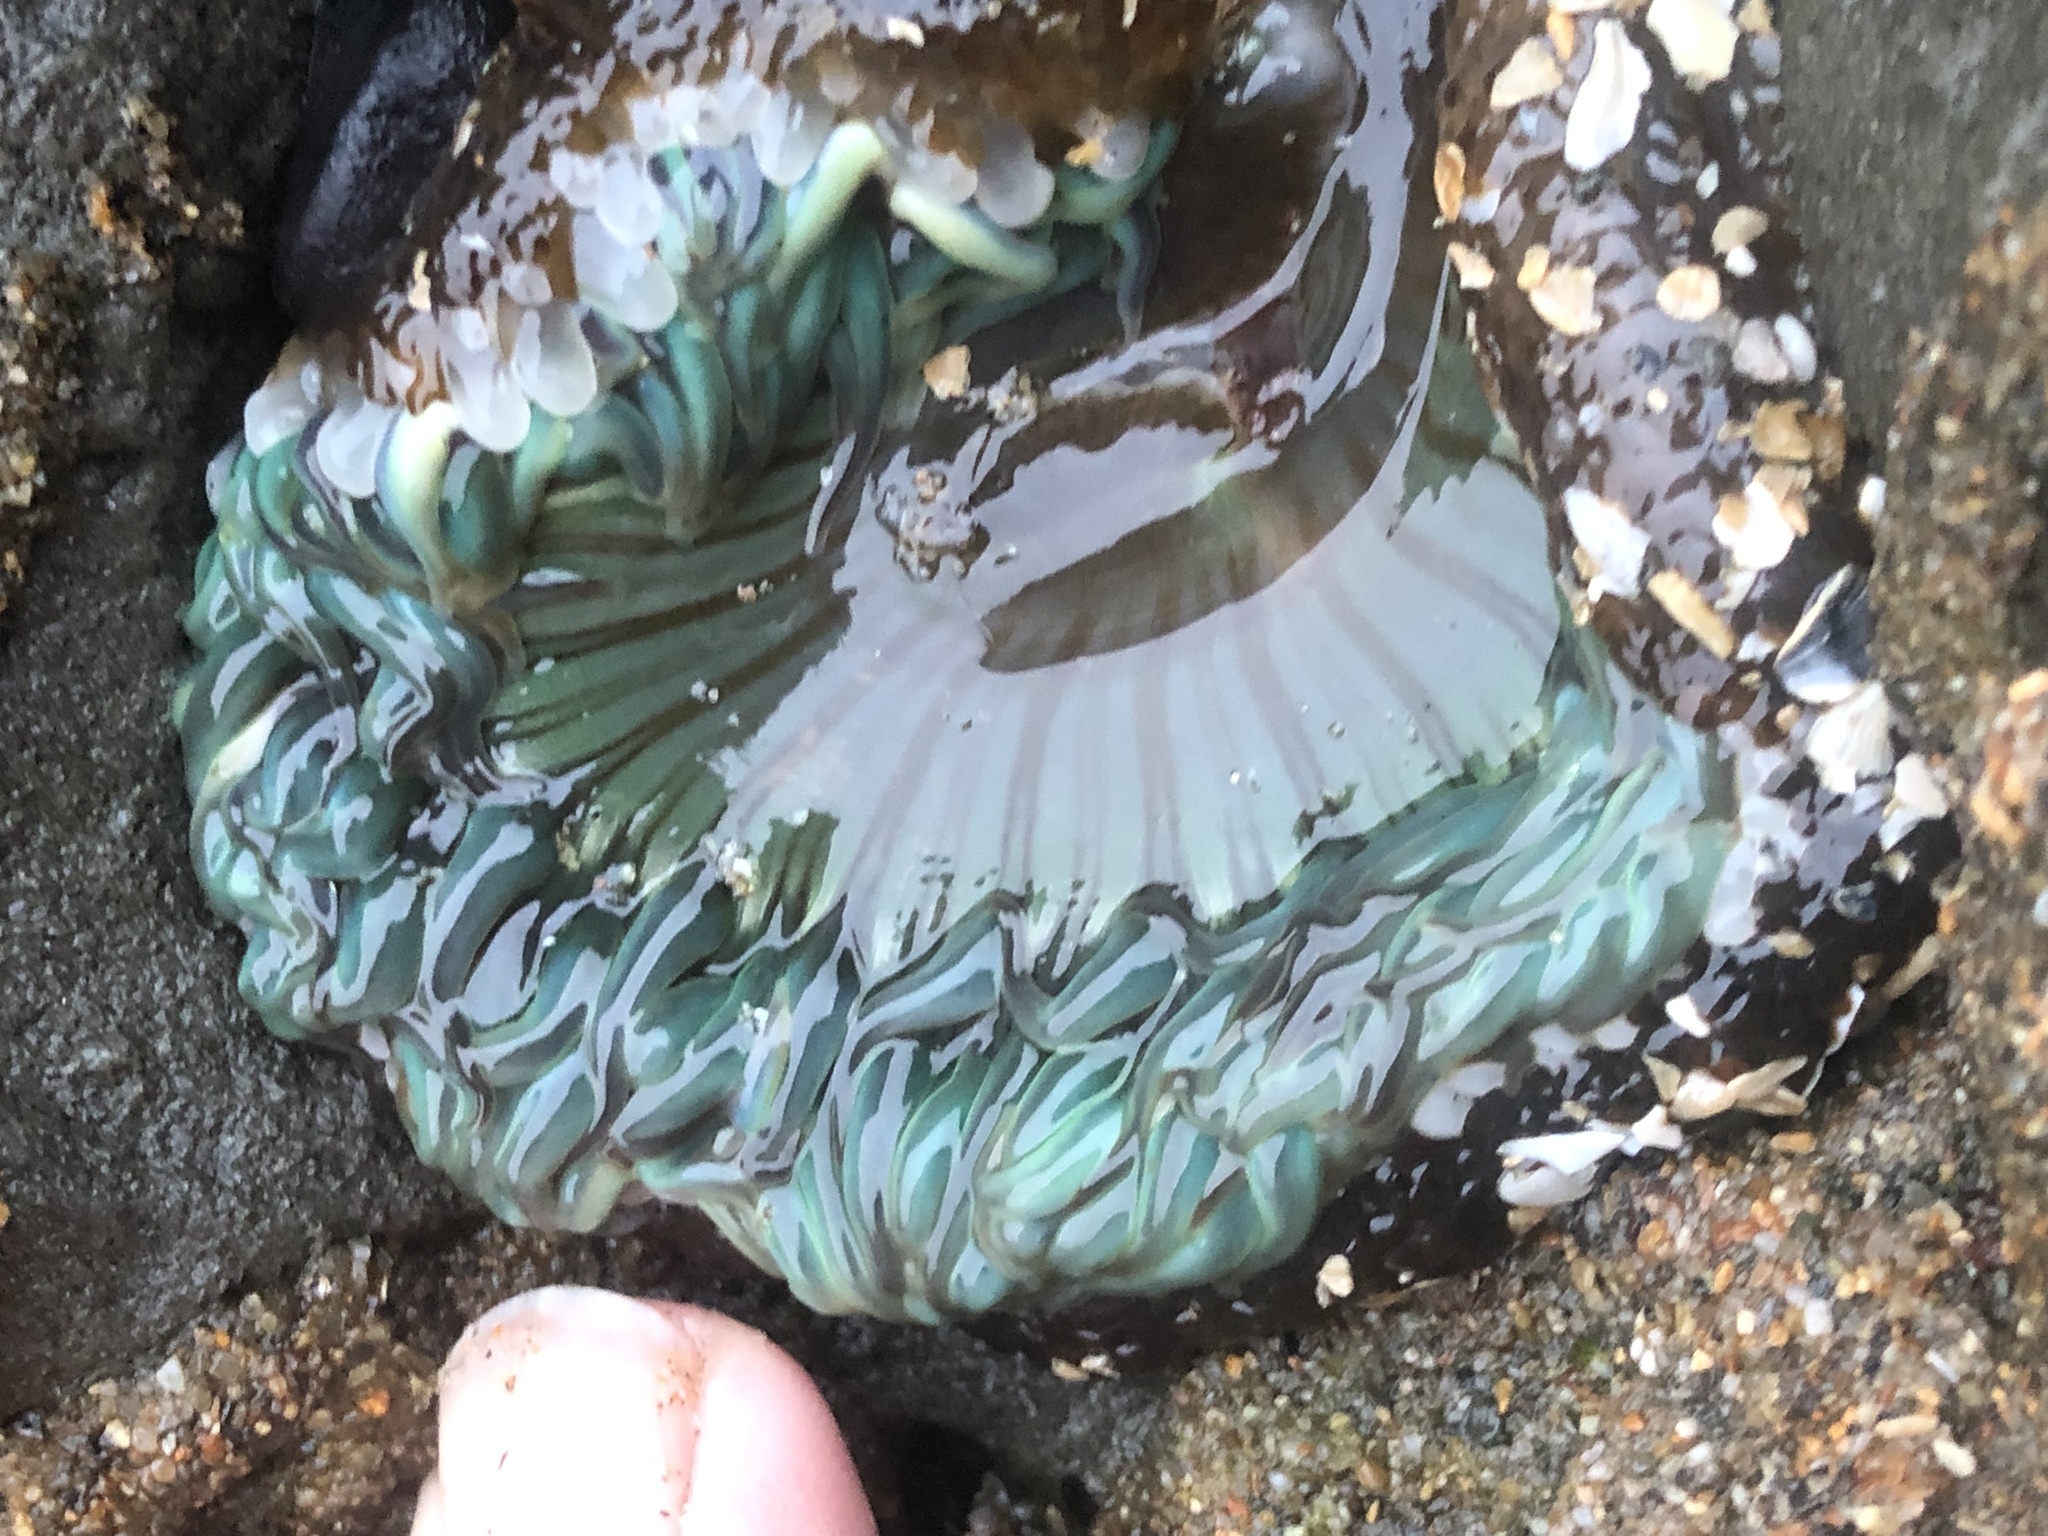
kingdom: Animalia
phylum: Cnidaria
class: Anthozoa
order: Actiniaria
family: Actiniidae
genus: Anthopleura
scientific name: Anthopleura sola
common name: Sun anemone
